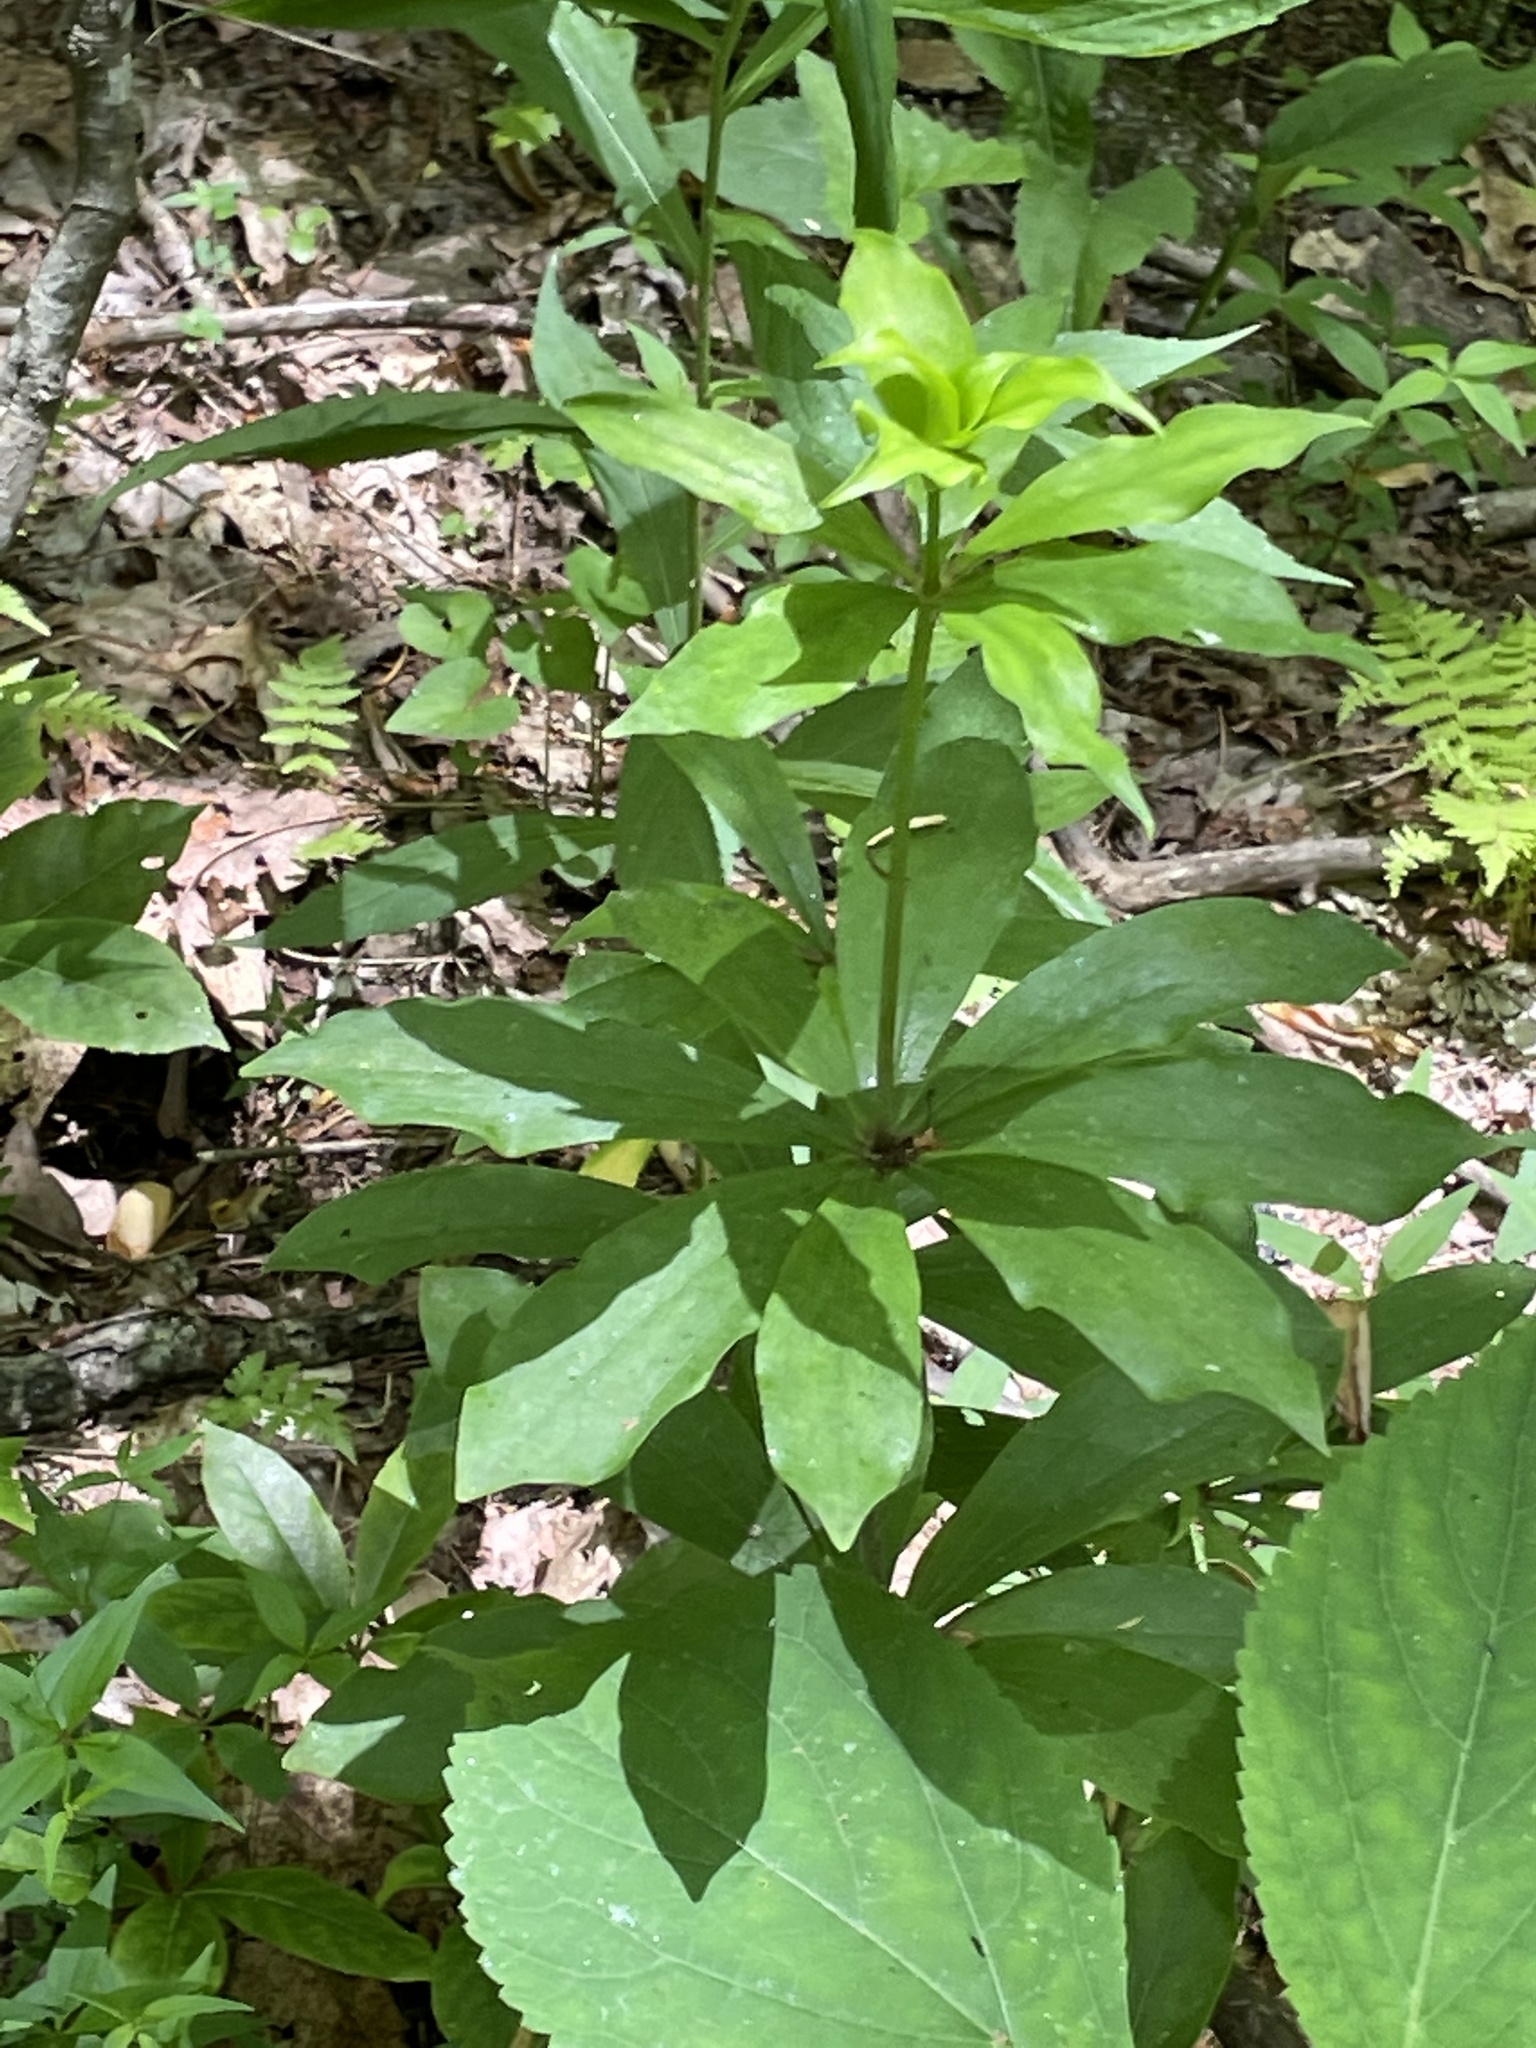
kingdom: Plantae
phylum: Tracheophyta
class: Liliopsida
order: Liliales
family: Liliaceae
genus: Lilium
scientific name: Lilium michauxii
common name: Carolina lily
